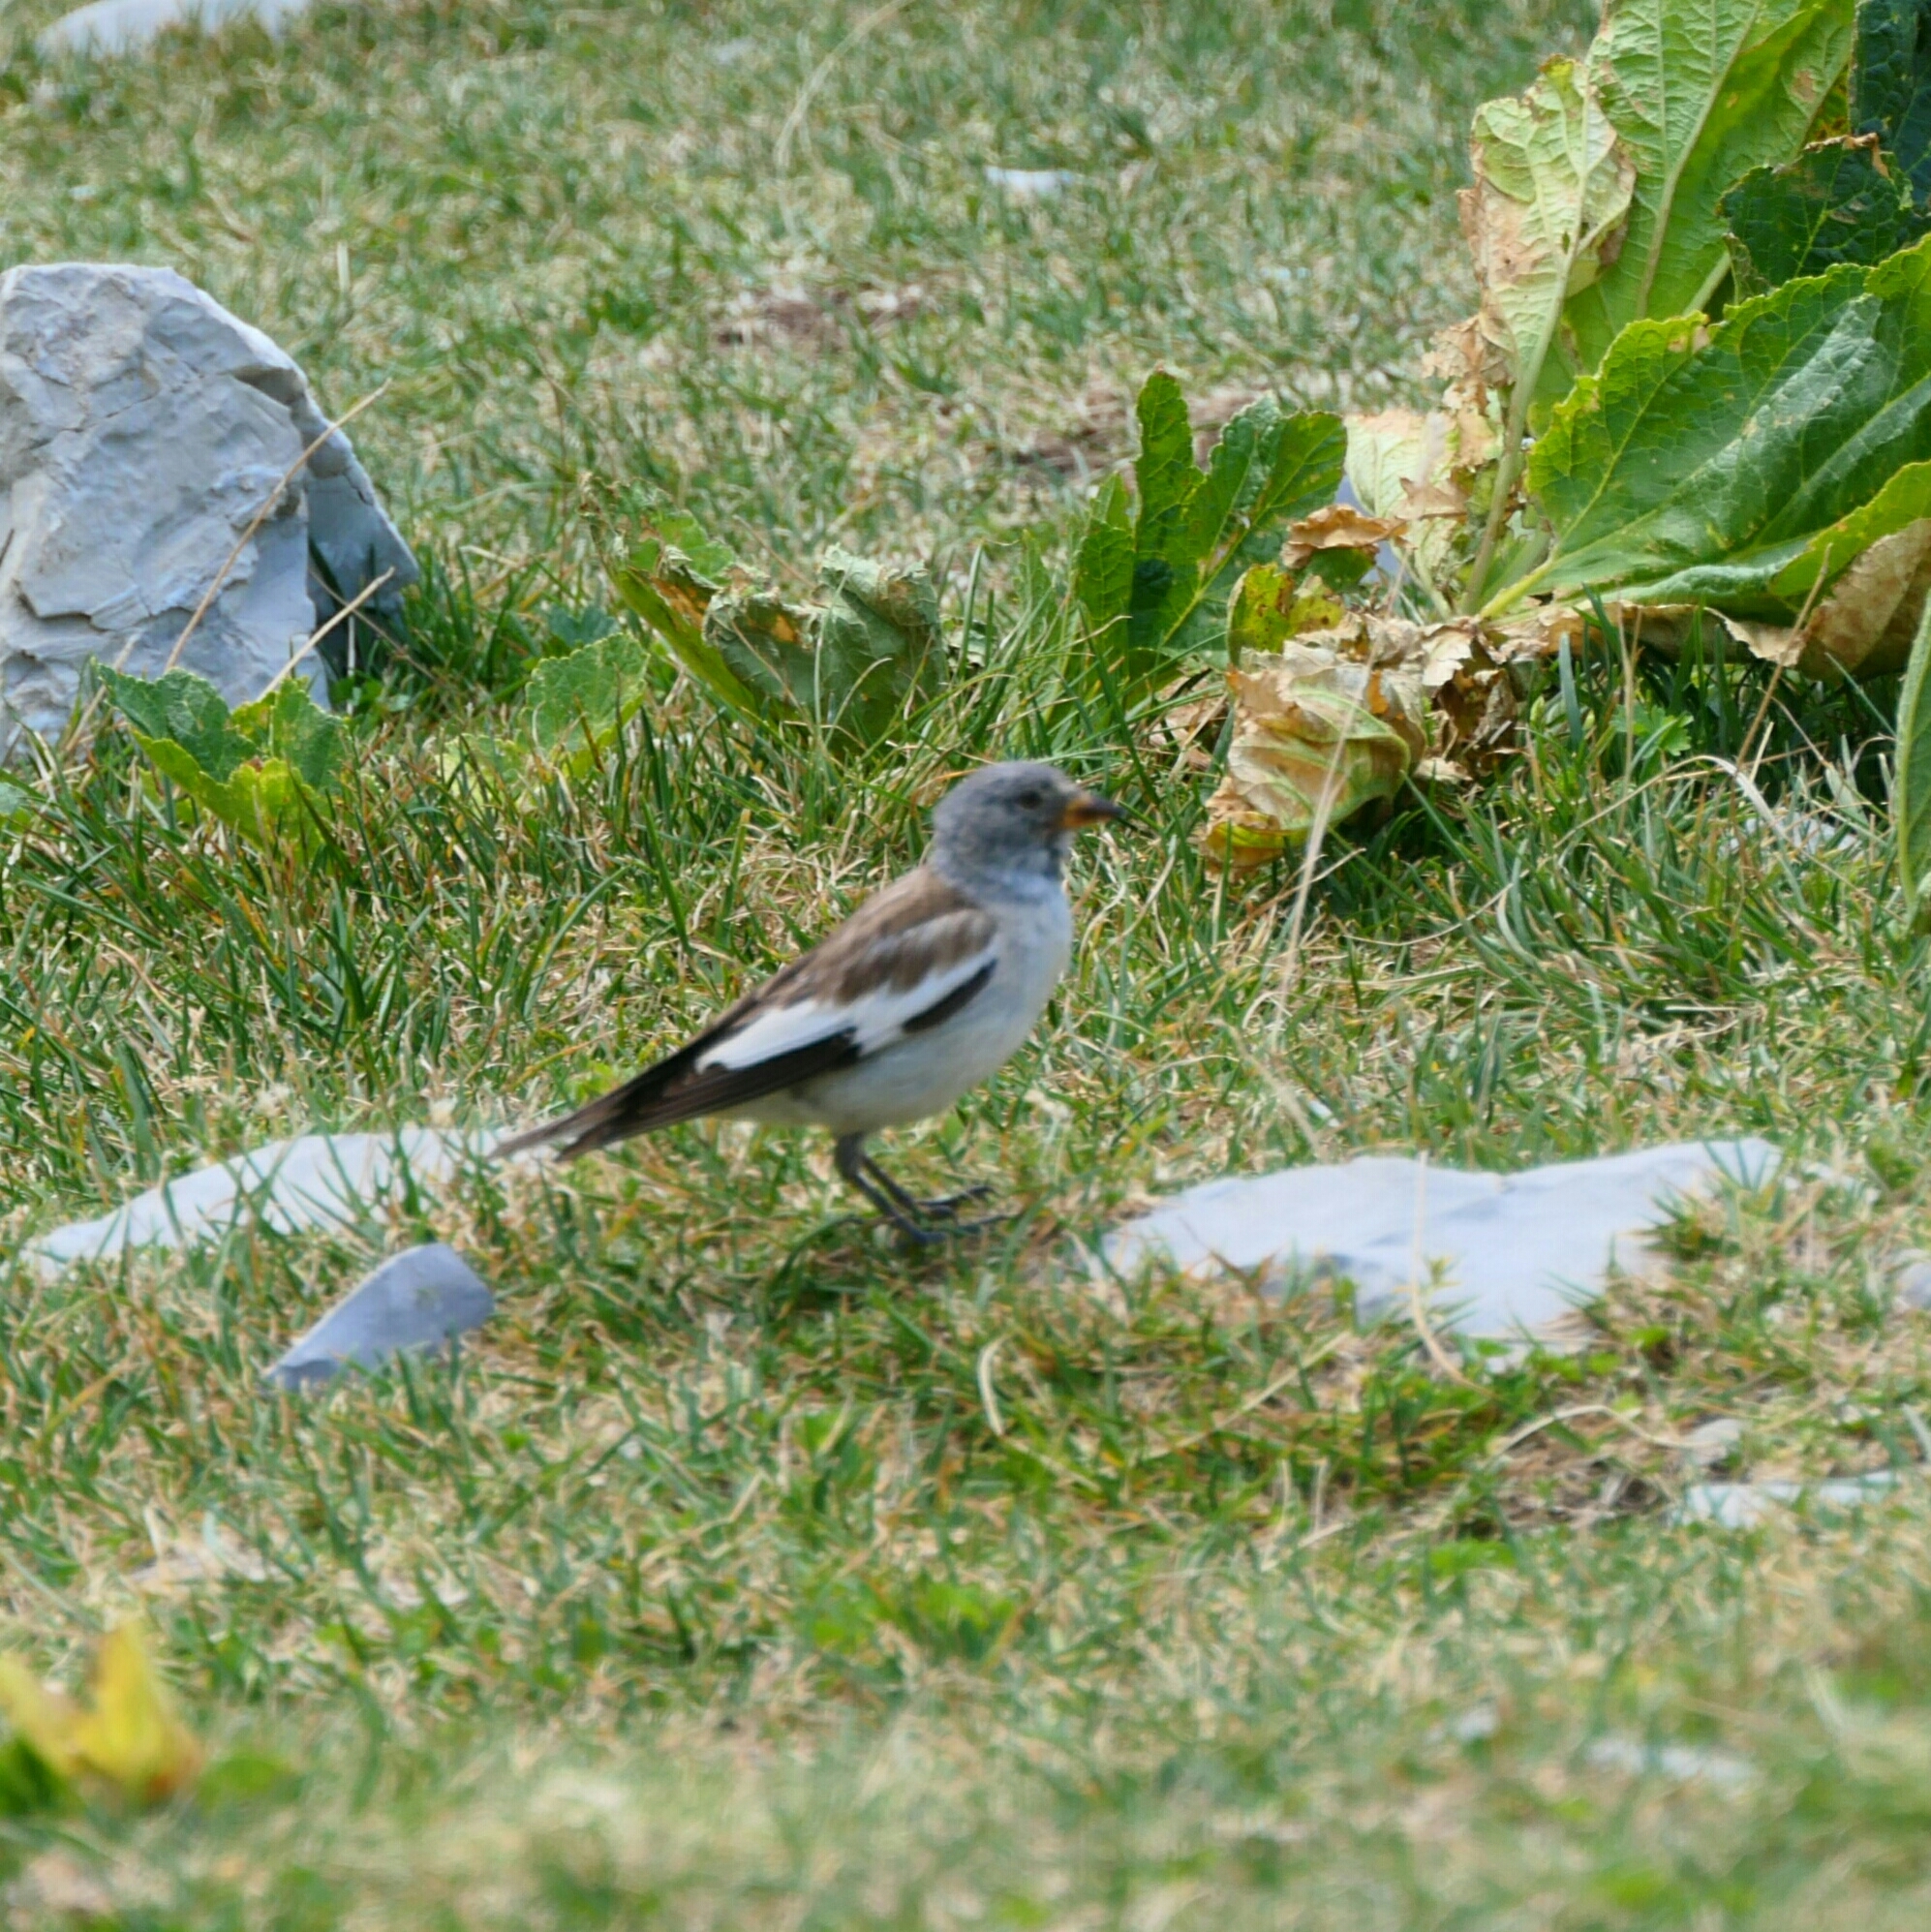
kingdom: Animalia
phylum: Chordata
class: Aves
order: Passeriformes
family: Passeridae
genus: Montifringilla
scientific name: Montifringilla nivalis
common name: White-winged snowfinch
